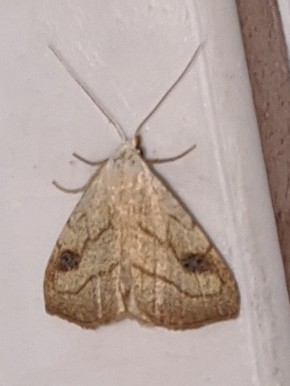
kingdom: Animalia
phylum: Arthropoda
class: Insecta
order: Lepidoptera
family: Erebidae
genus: Rivula
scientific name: Rivula propinqualis
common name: Spotted grass moth
